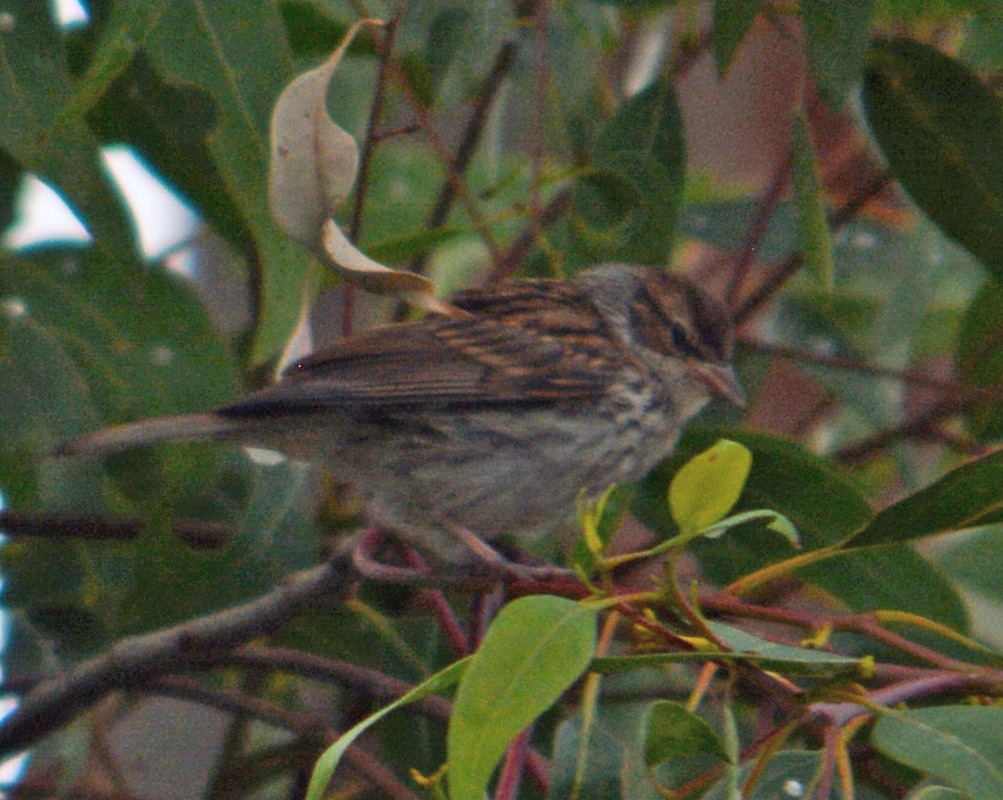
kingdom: Animalia
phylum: Chordata
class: Aves
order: Passeriformes
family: Passerellidae
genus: Spizella
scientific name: Spizella passerina
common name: Chipping sparrow
